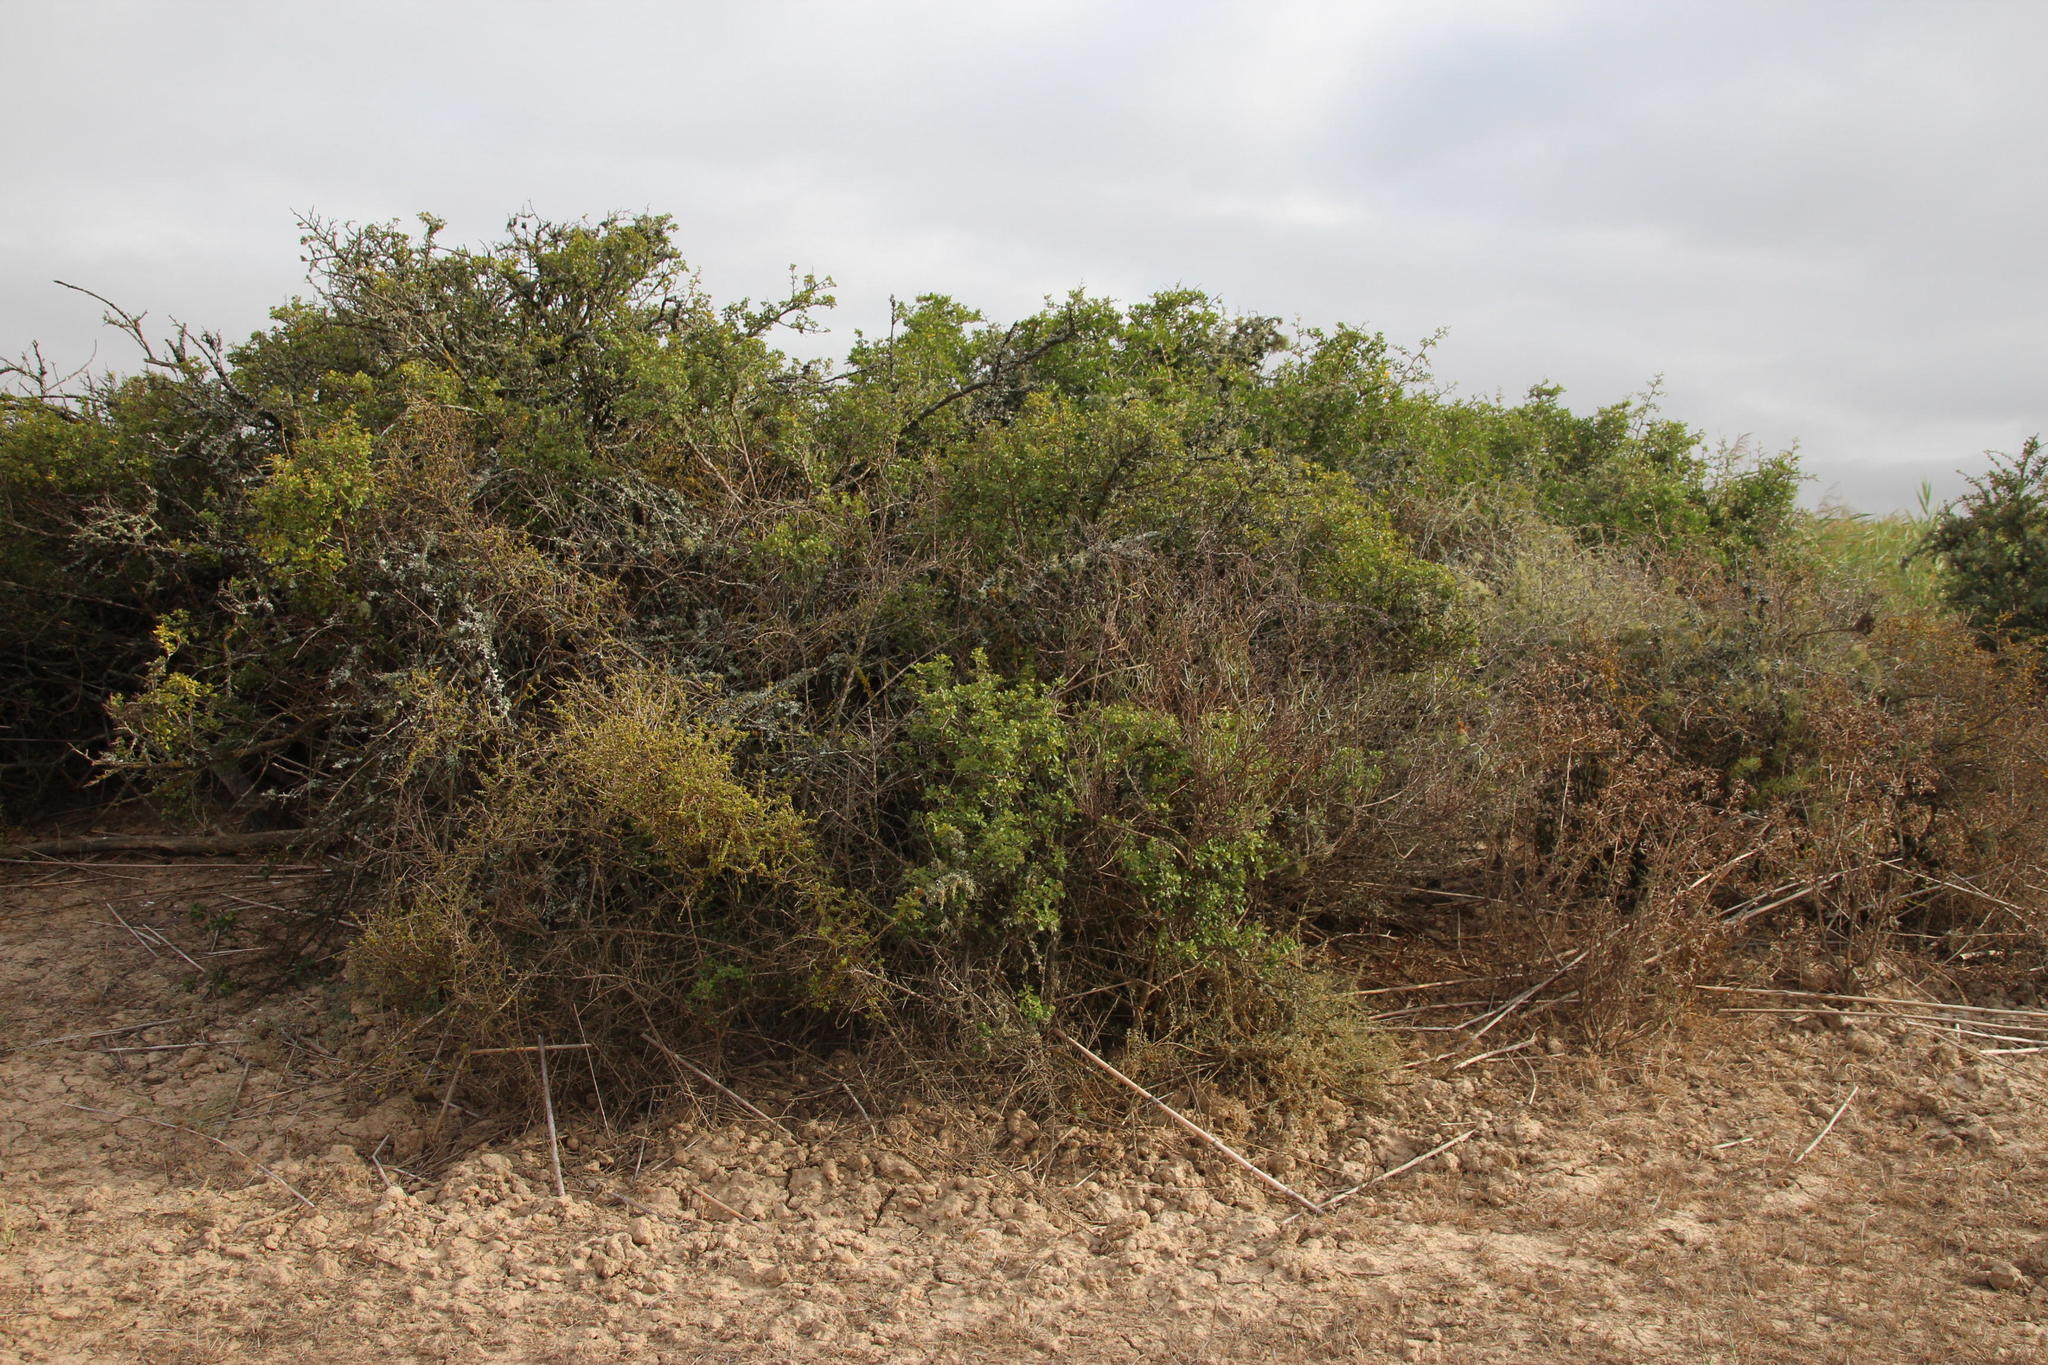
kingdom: Plantae
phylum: Tracheophyta
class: Magnoliopsida
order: Sapindales
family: Anacardiaceae
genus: Searsia
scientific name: Searsia glauca
